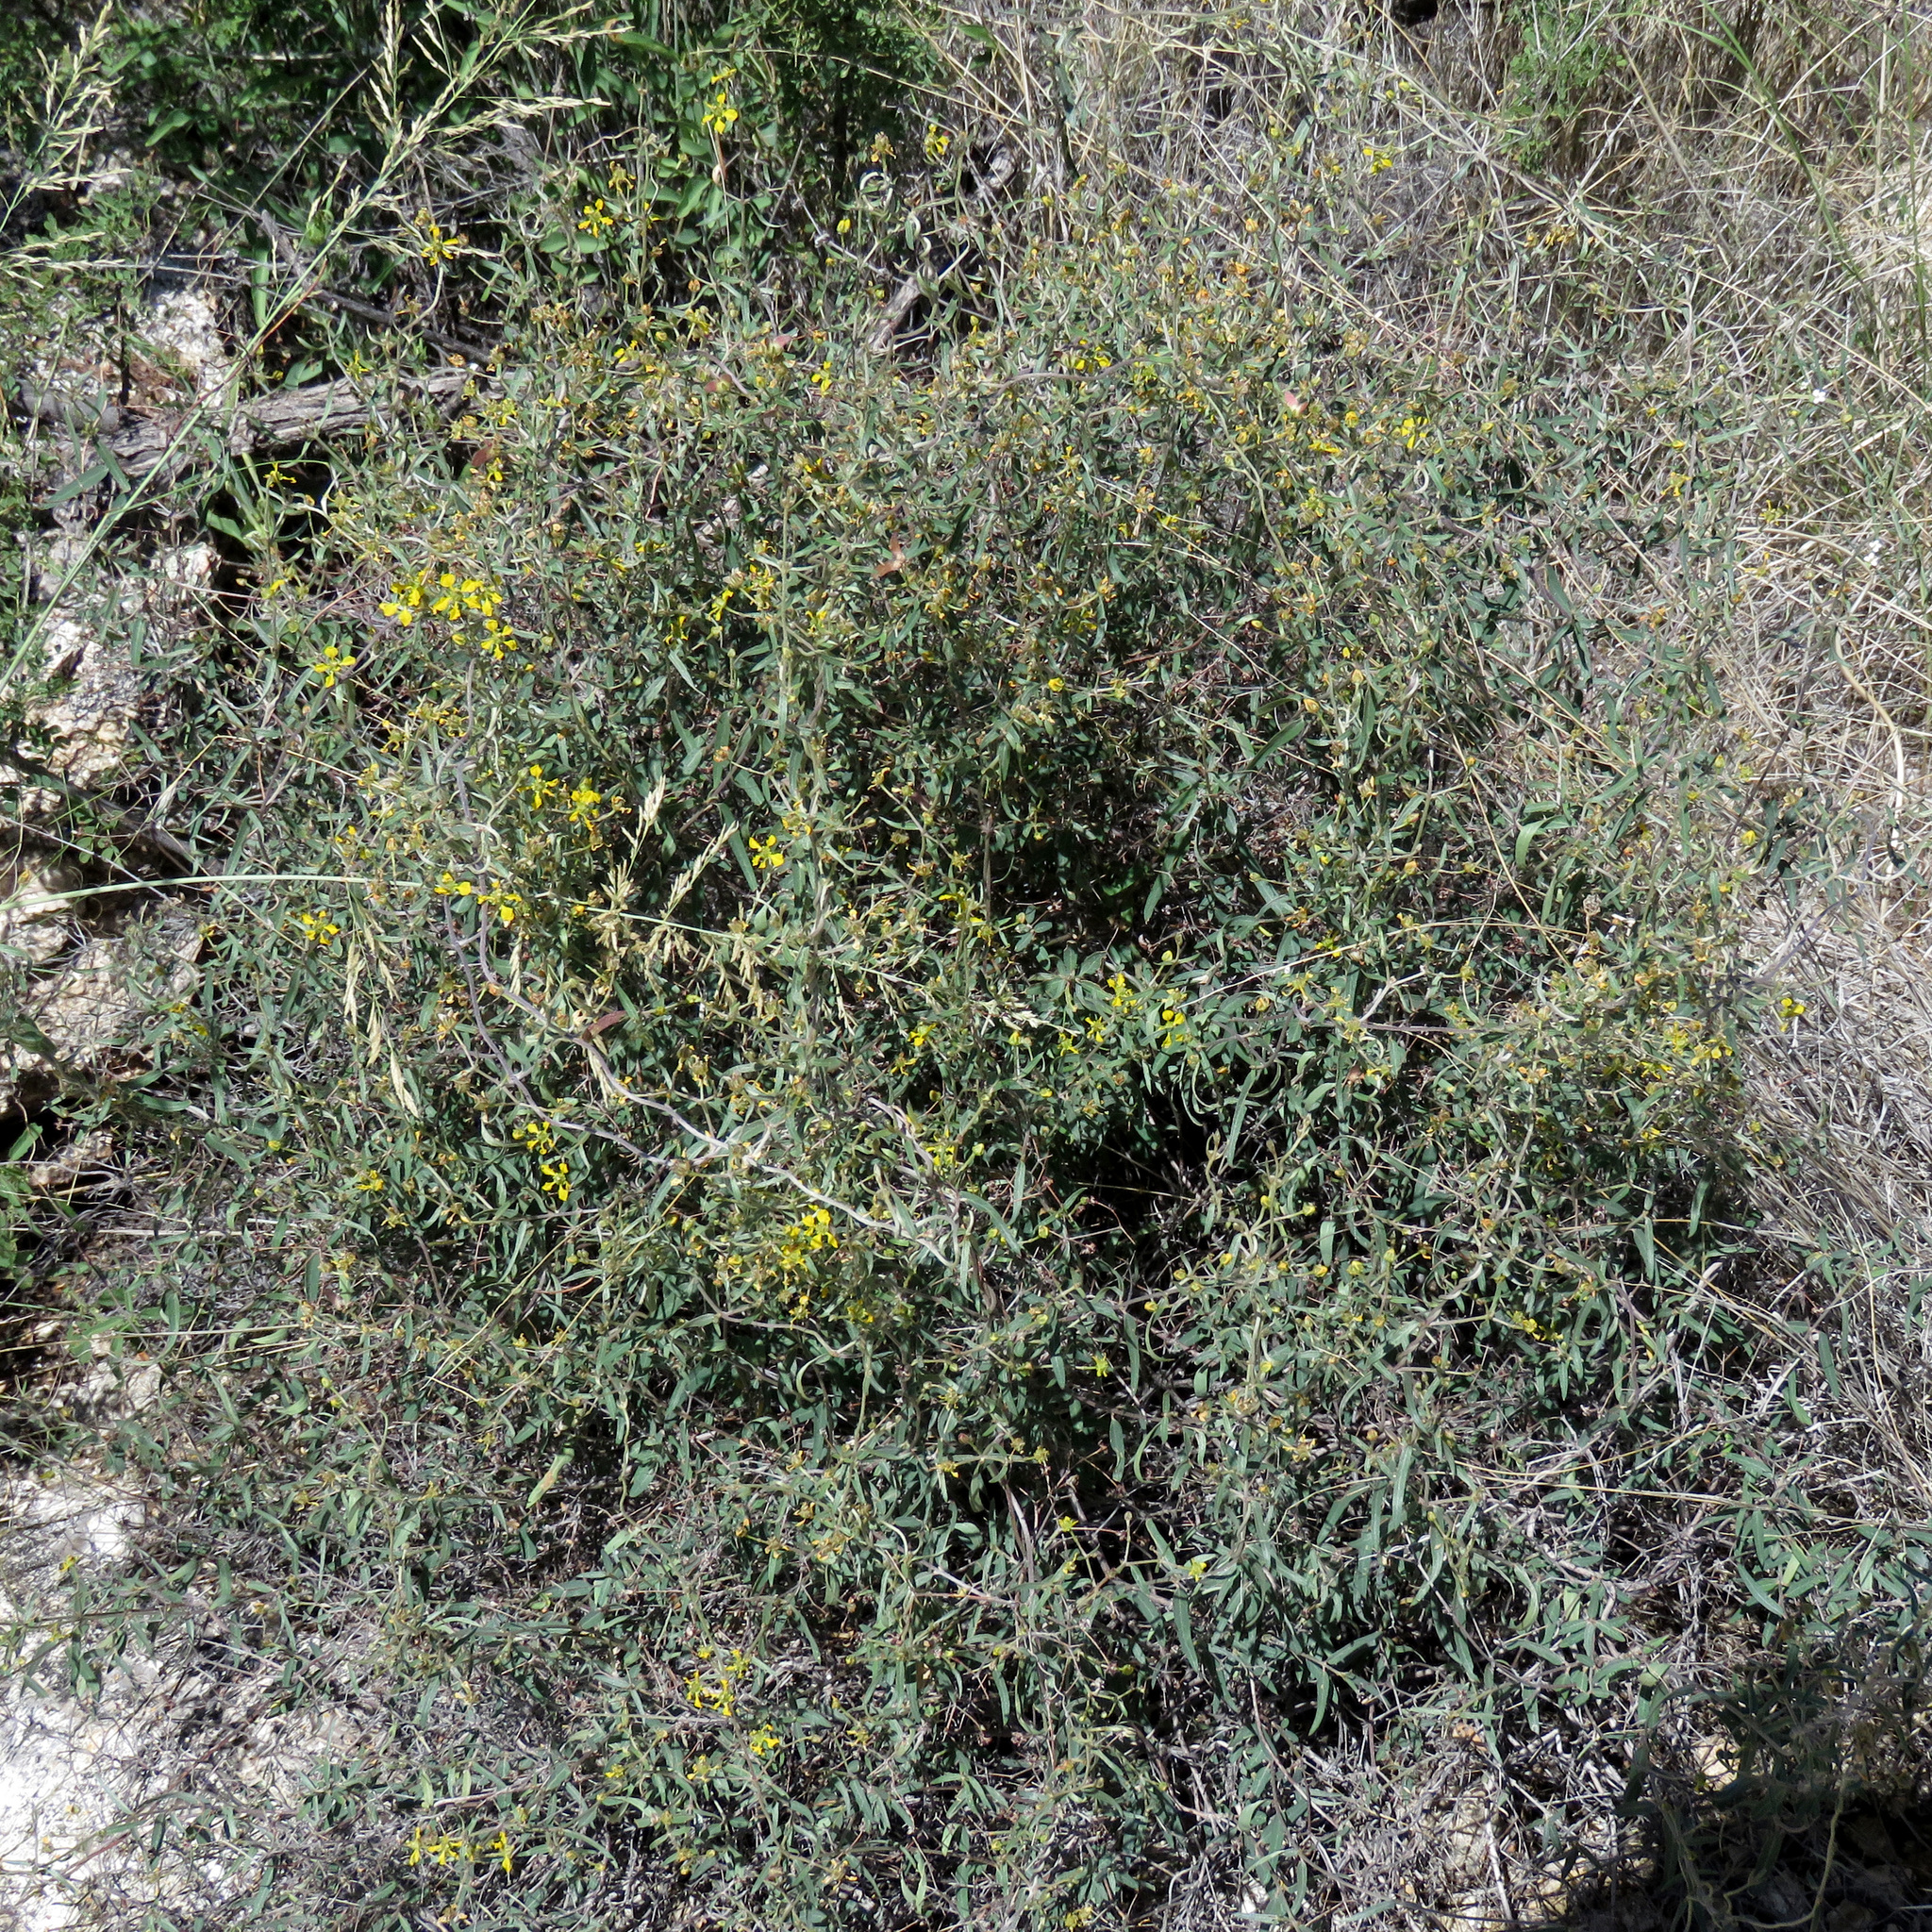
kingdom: Plantae
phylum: Tracheophyta
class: Magnoliopsida
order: Malpighiales
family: Malpighiaceae
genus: Cottsia
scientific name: Cottsia gracilis
